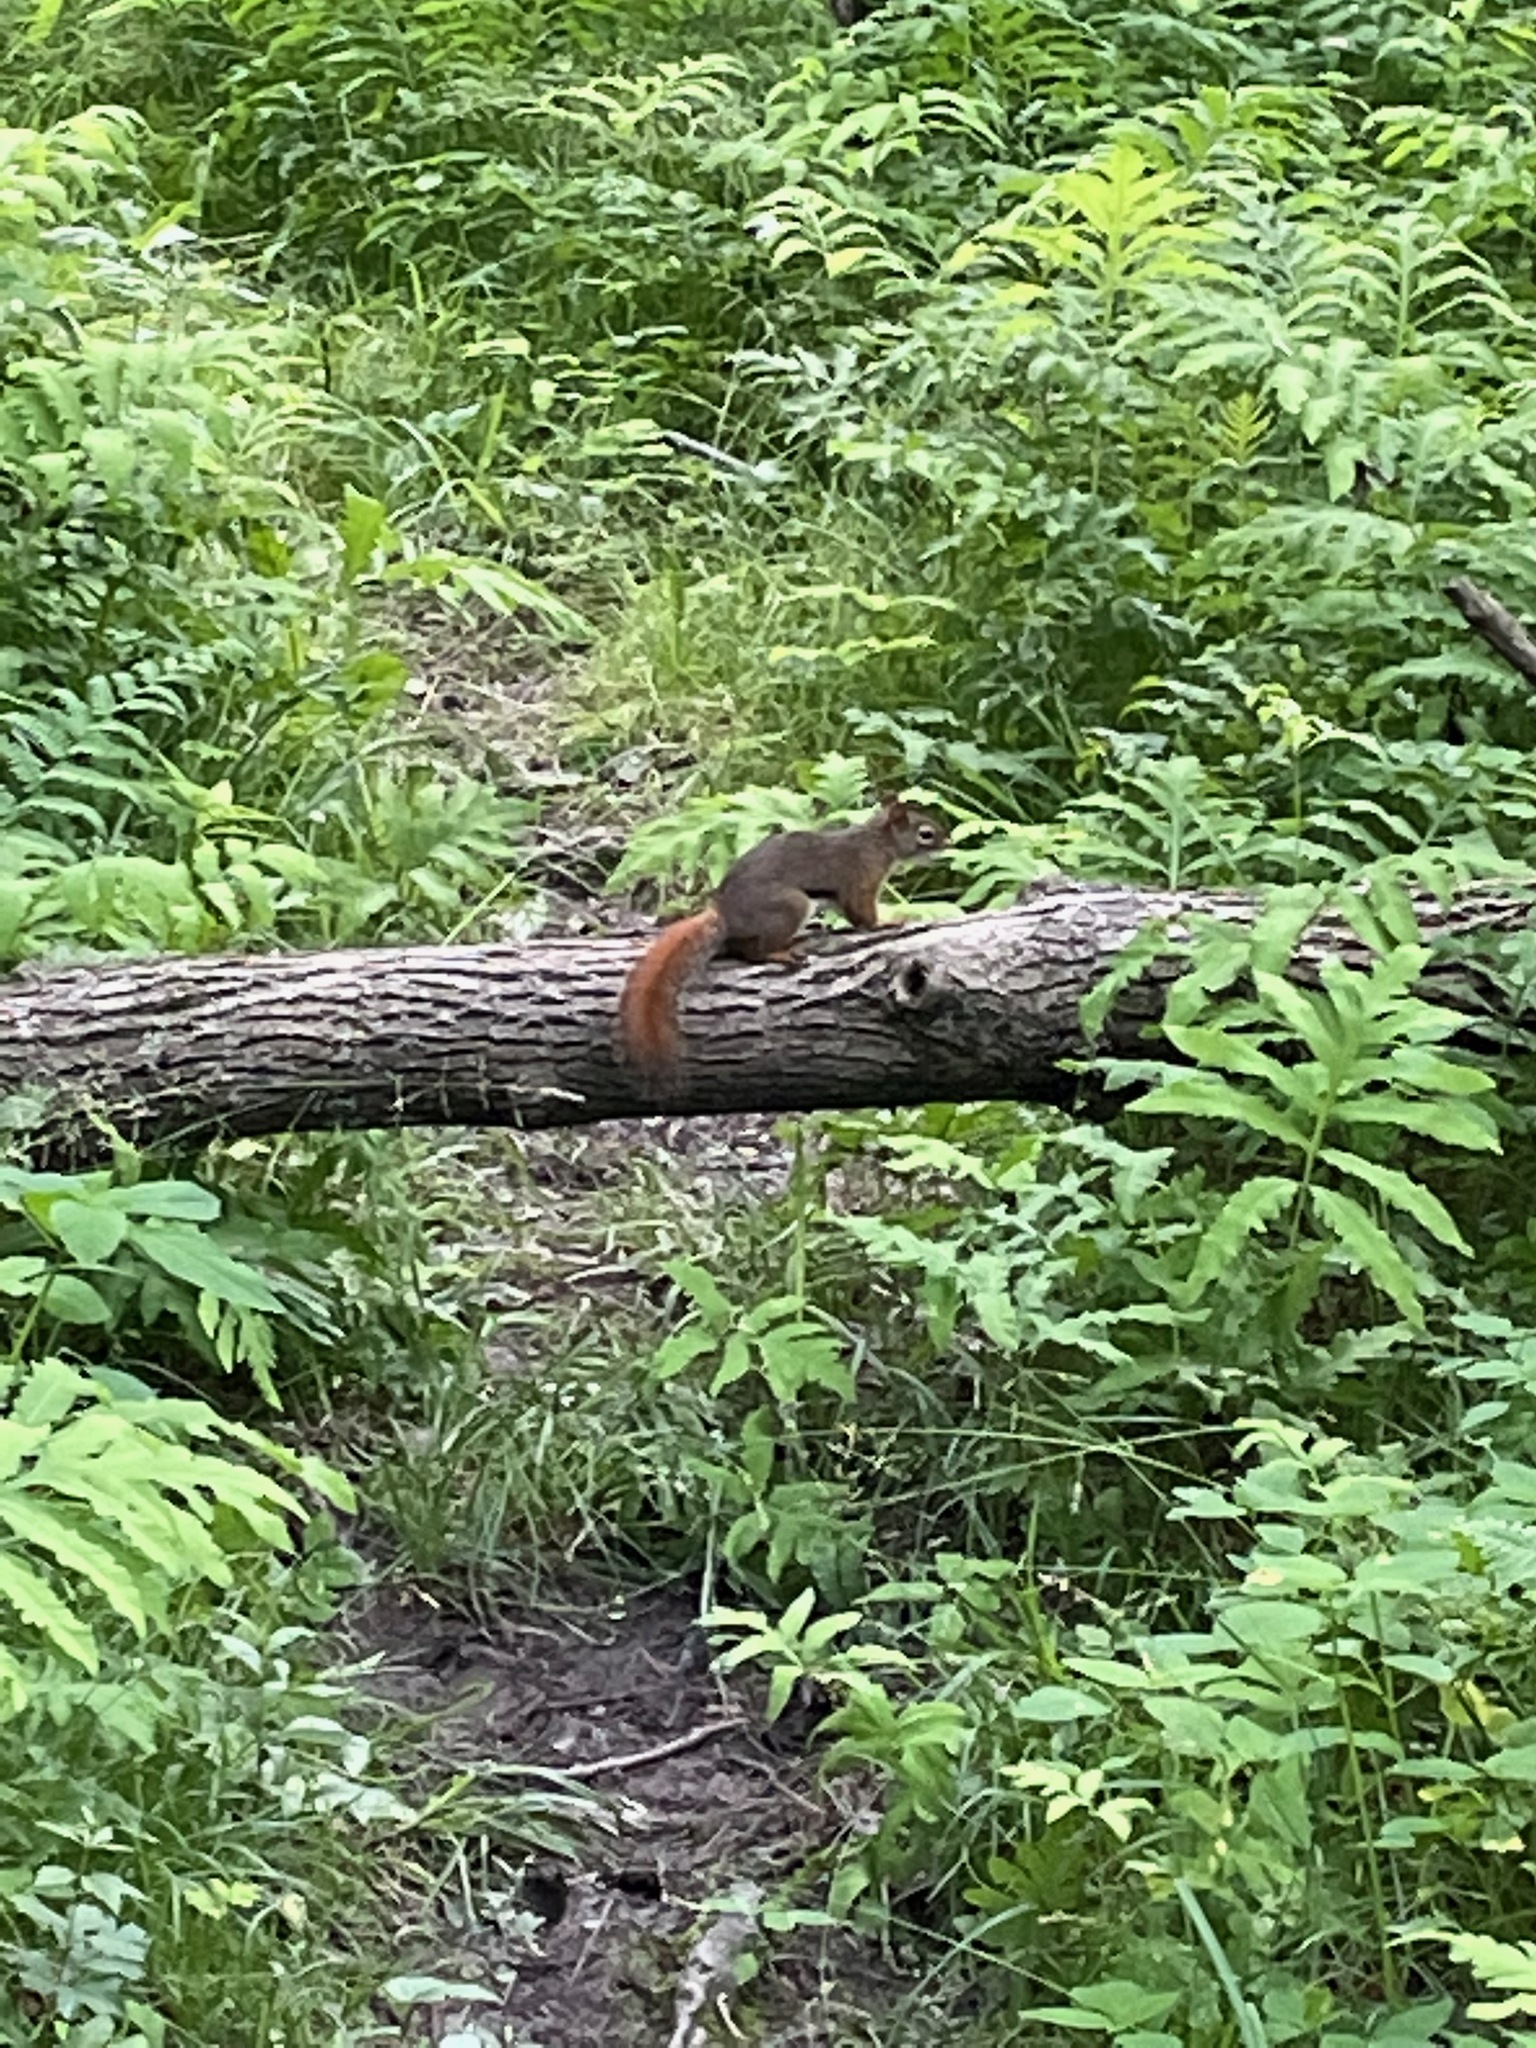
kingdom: Animalia
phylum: Chordata
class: Mammalia
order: Rodentia
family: Sciuridae
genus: Tamiasciurus
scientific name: Tamiasciurus hudsonicus
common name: Red squirrel
